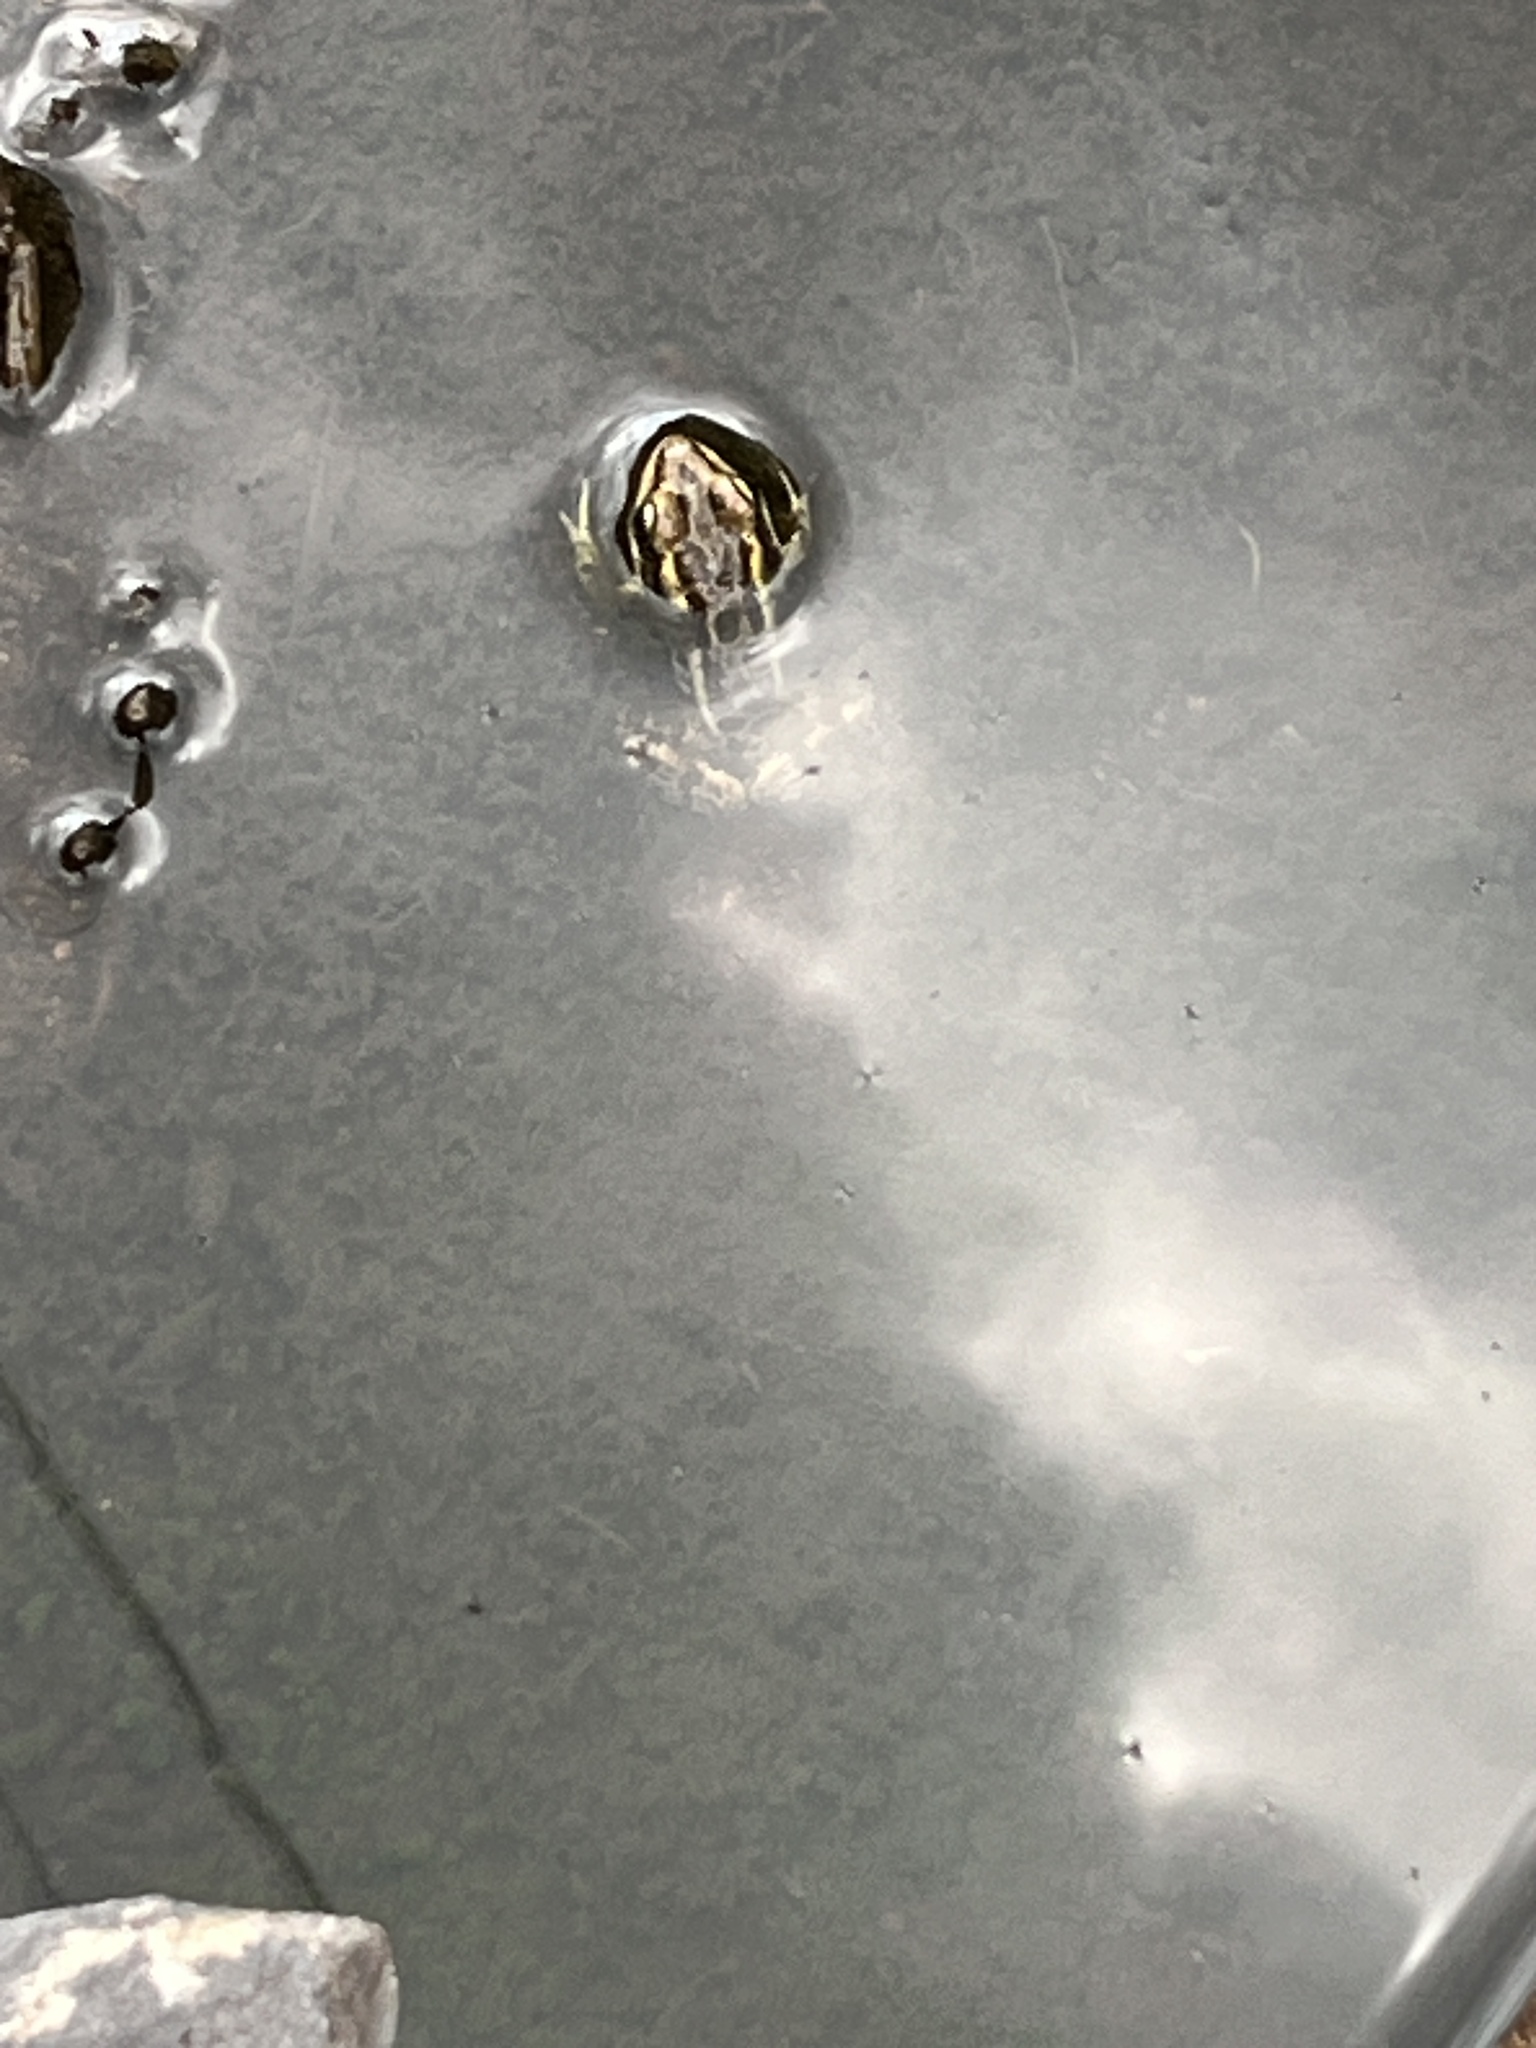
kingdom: Animalia
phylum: Chordata
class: Amphibia
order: Anura
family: Ranidae
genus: Lithobates
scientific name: Lithobates palustris
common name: Pickerel frog
